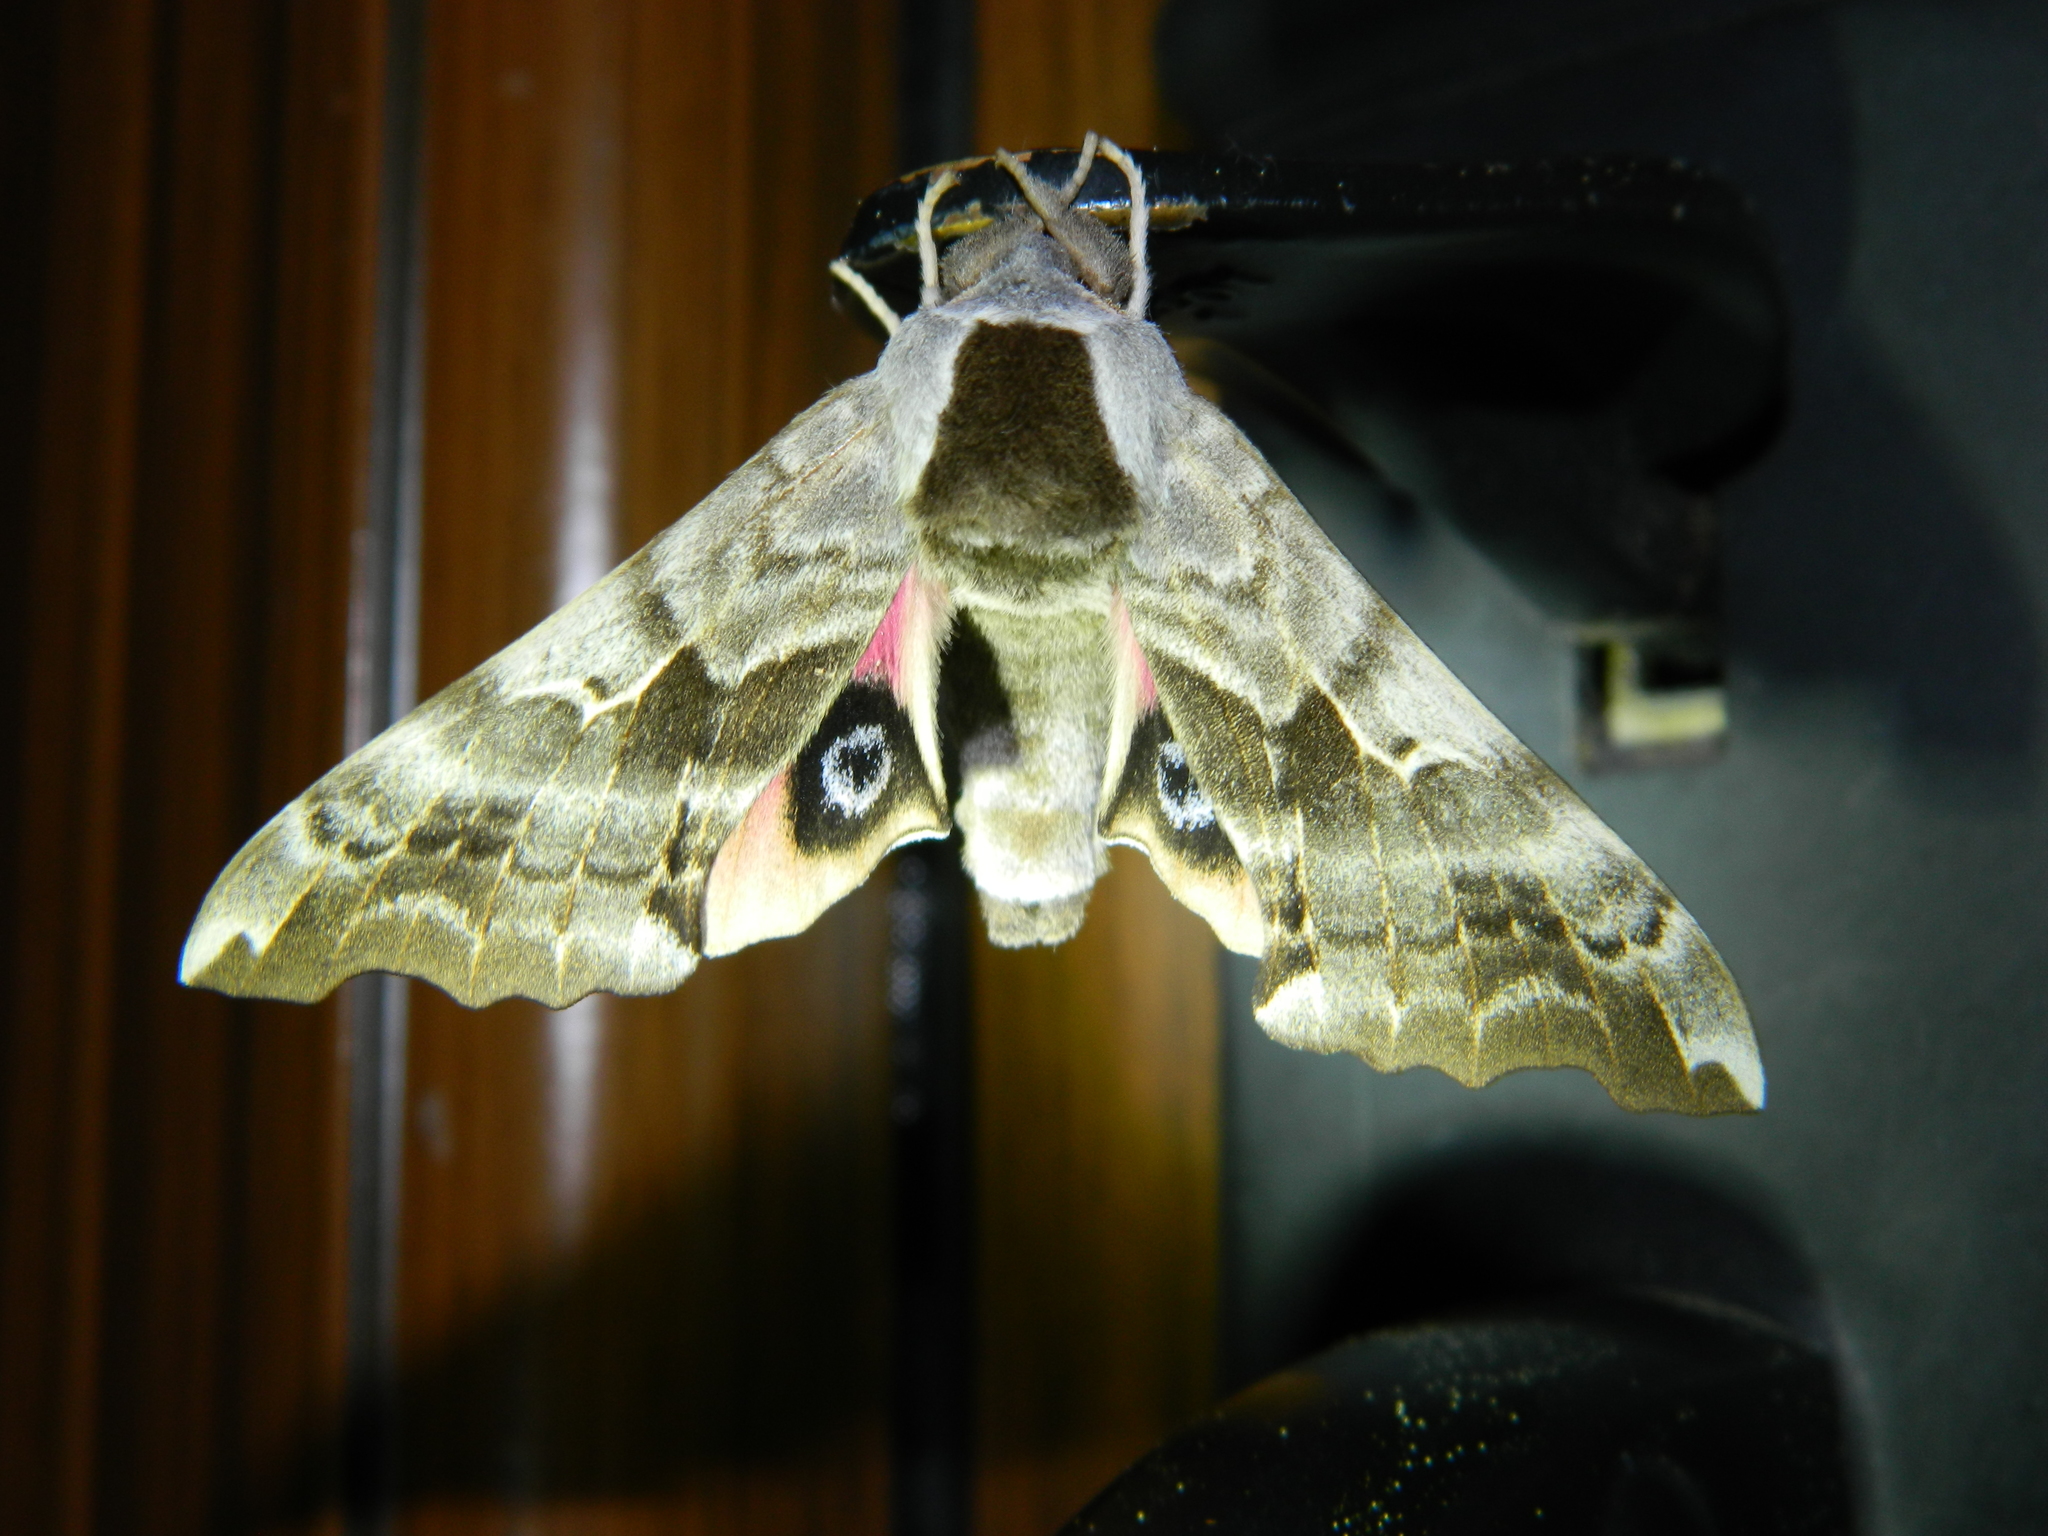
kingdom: Animalia
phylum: Arthropoda
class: Insecta
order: Lepidoptera
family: Sphingidae
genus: Smerinthus
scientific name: Smerinthus cerisyi
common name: Cerisy's sphinx moth
